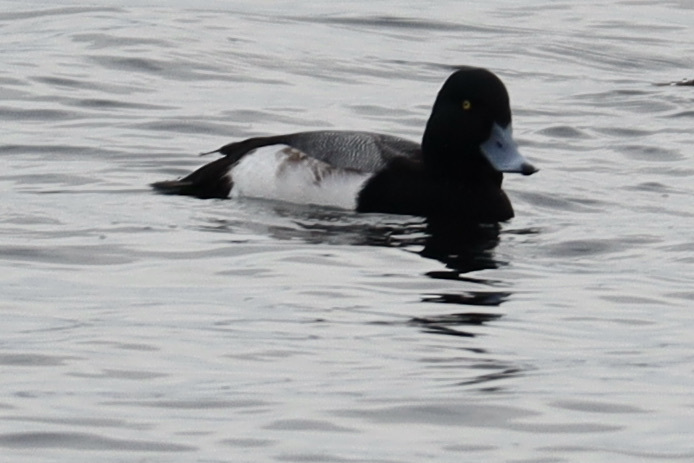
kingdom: Animalia
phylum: Chordata
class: Aves
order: Anseriformes
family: Anatidae
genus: Aythya
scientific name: Aythya marila
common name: Greater scaup
